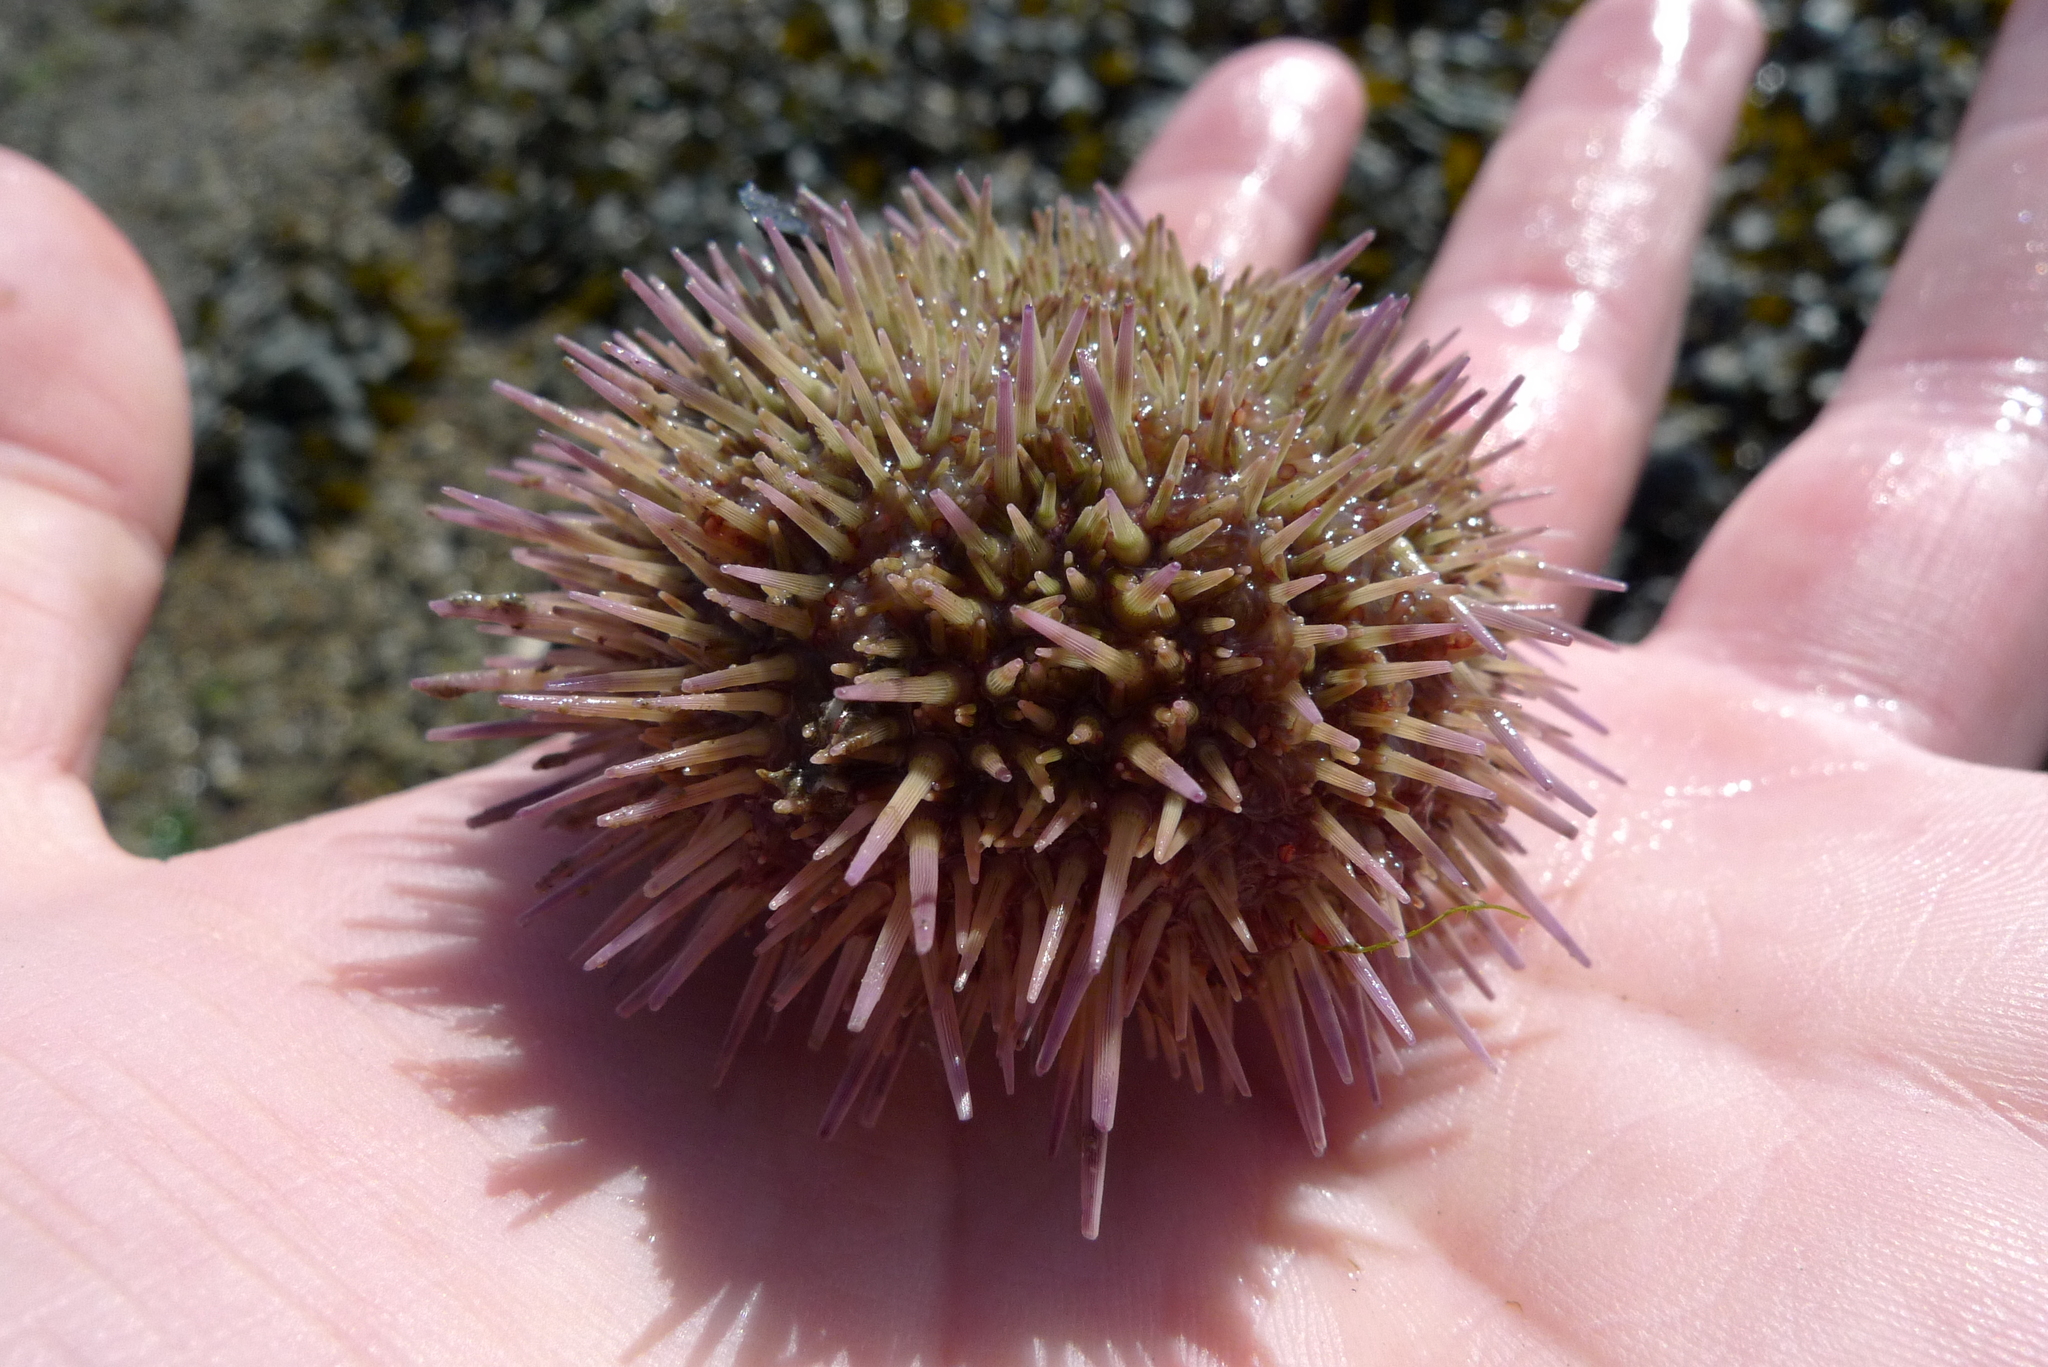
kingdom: Animalia
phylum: Echinodermata
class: Echinoidea
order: Camarodonta
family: Parechinidae
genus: Psammechinus
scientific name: Psammechinus miliaris
